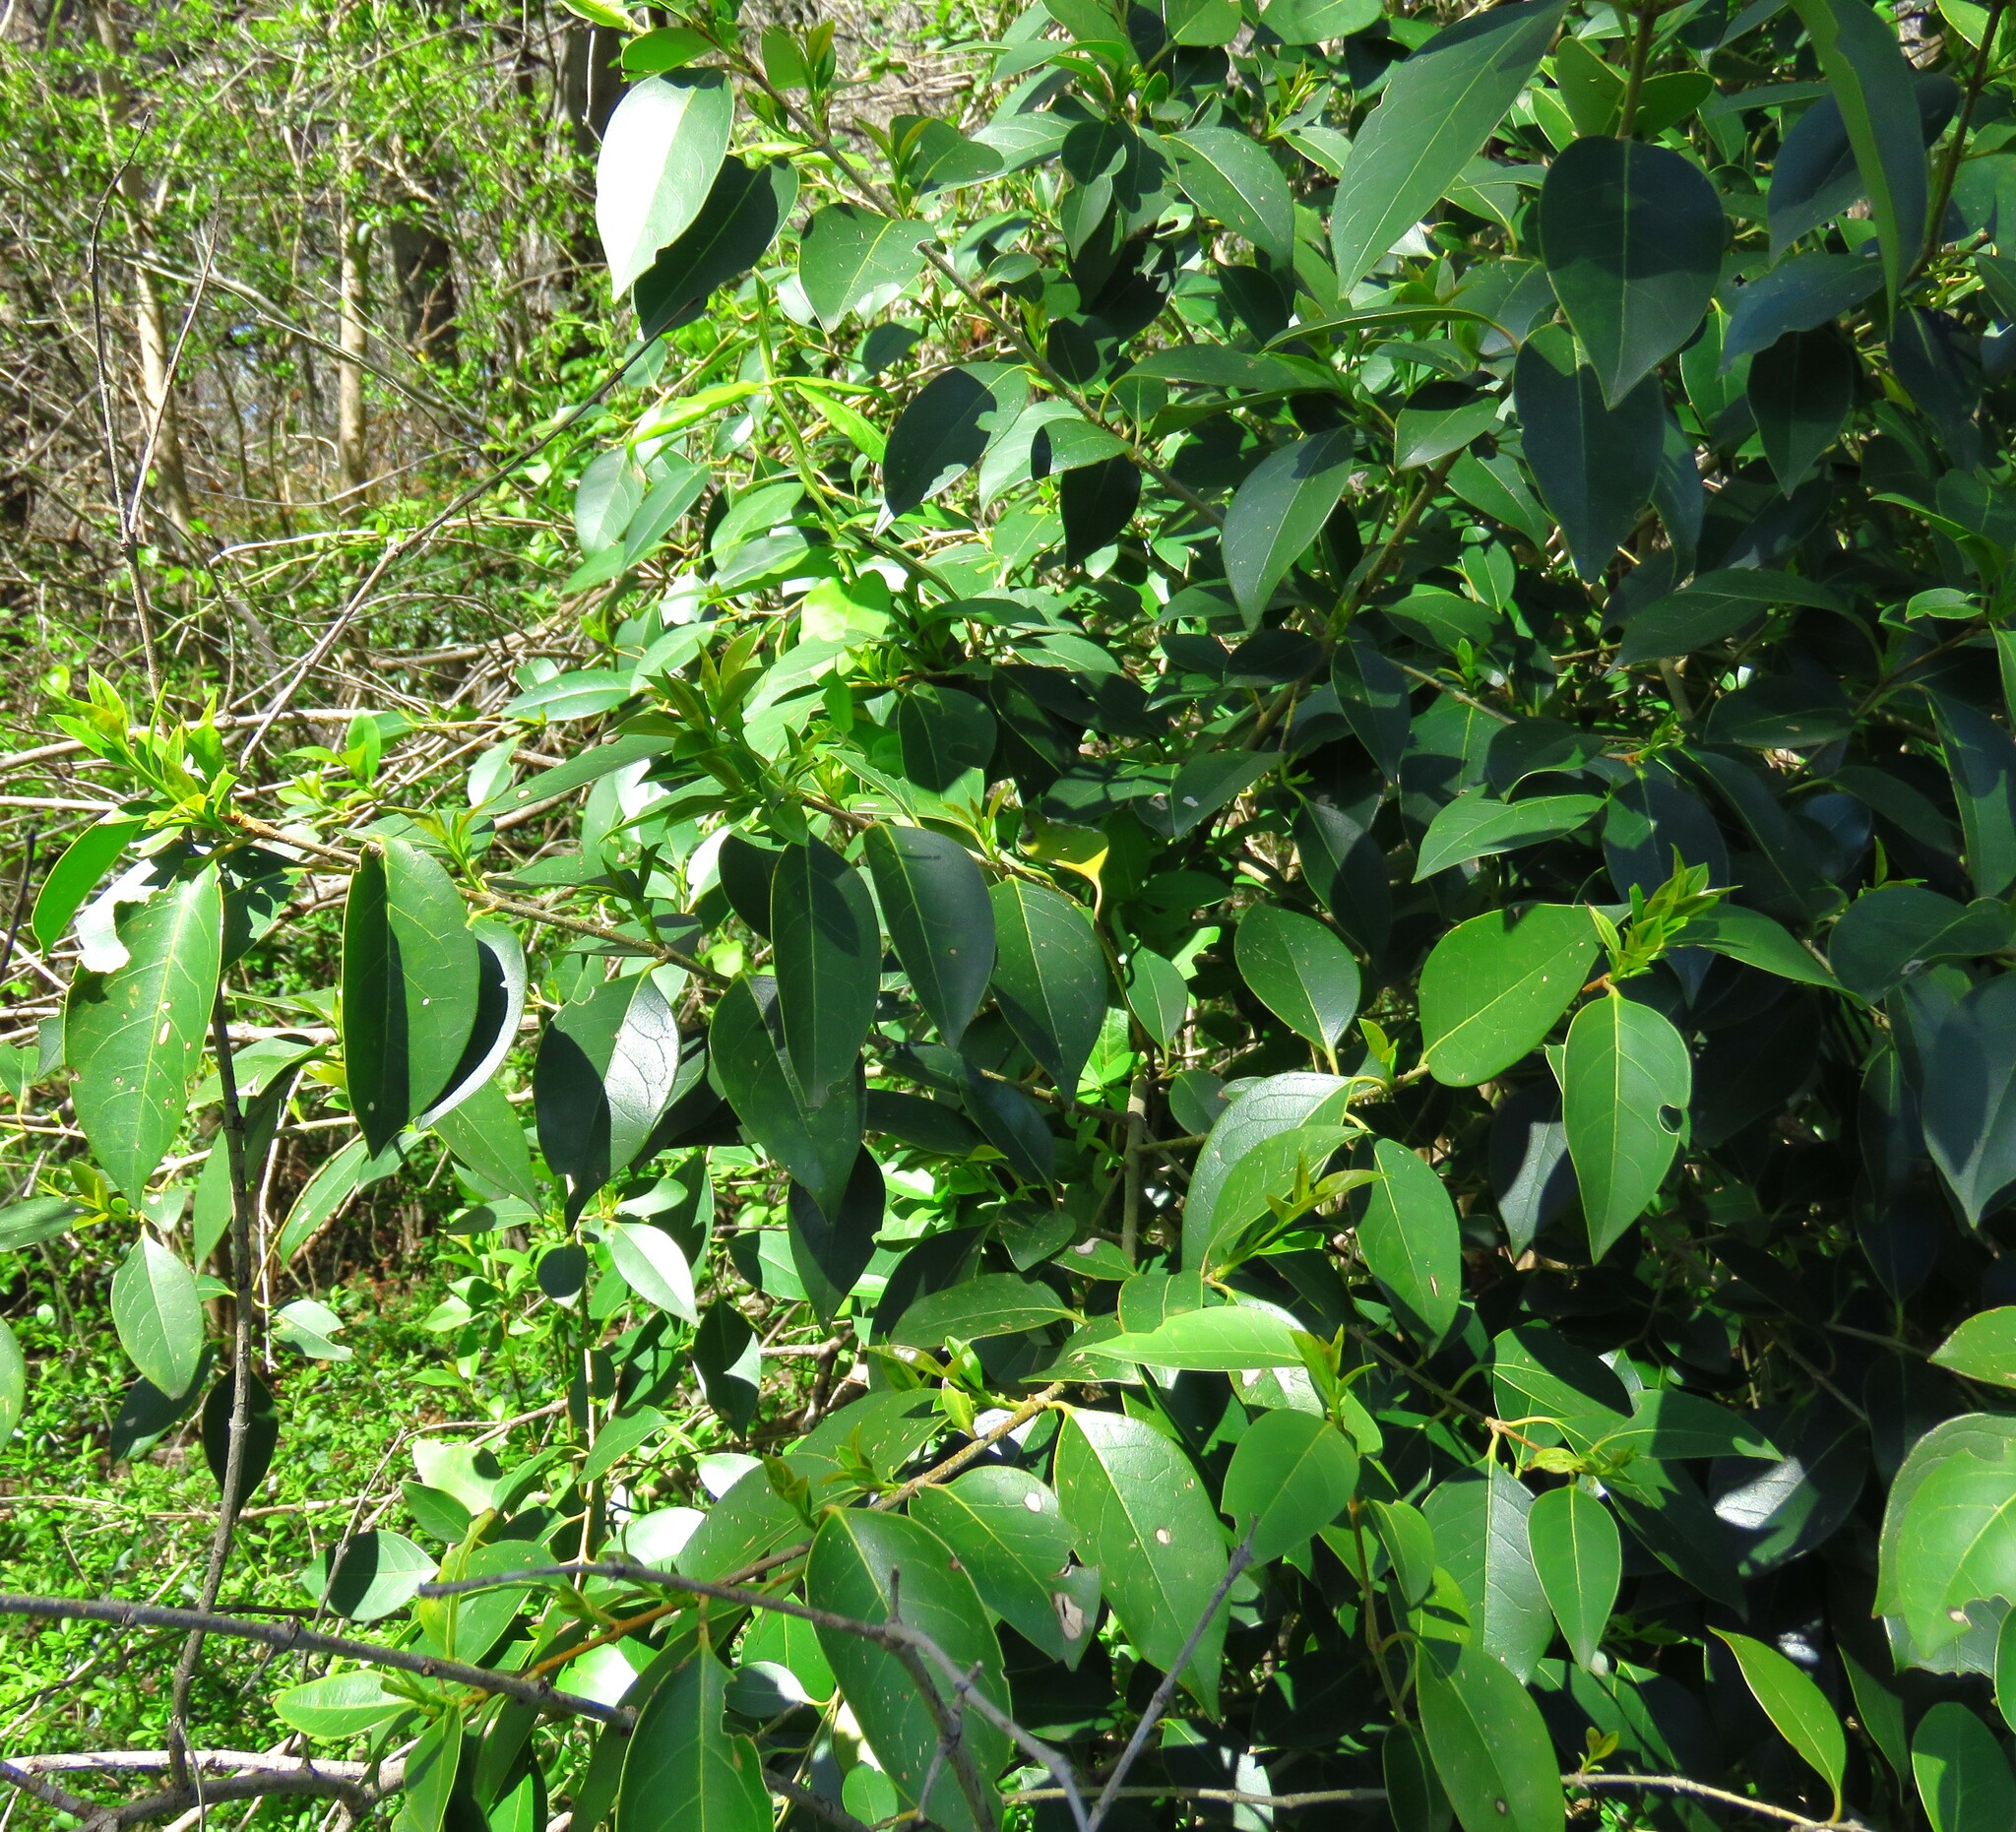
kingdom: Plantae
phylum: Tracheophyta
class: Magnoliopsida
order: Lamiales
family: Oleaceae
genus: Ligustrum
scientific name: Ligustrum lucidum
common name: Glossy privet
